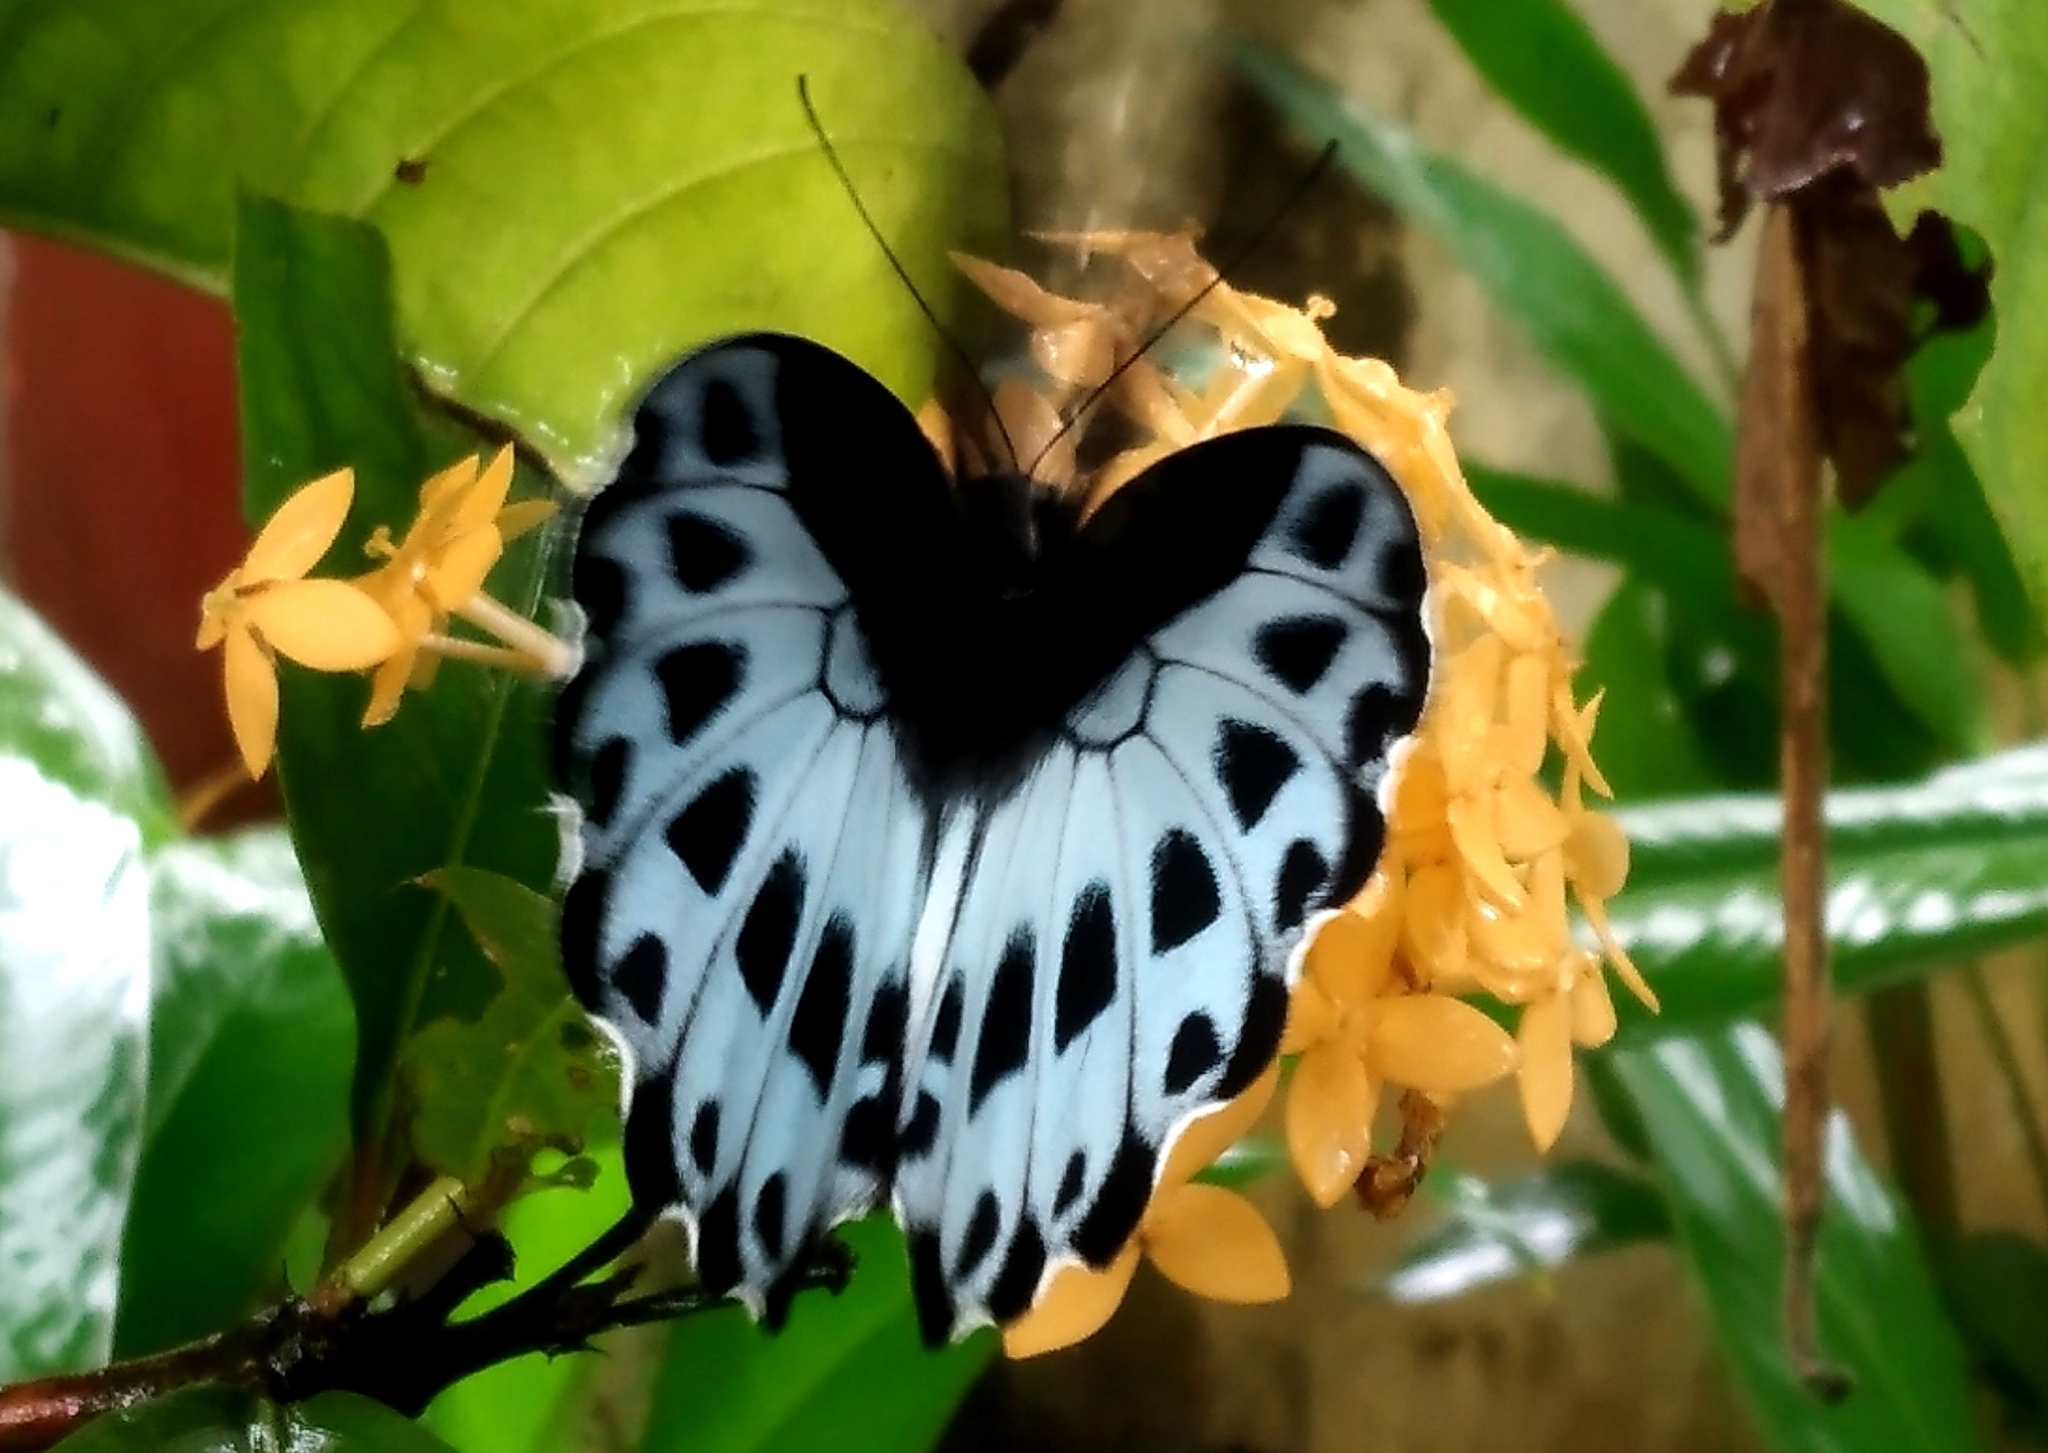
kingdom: Animalia
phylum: Arthropoda
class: Insecta
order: Lepidoptera
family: Papilionidae
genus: Papilio
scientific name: Papilio memnon
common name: Great mormon
